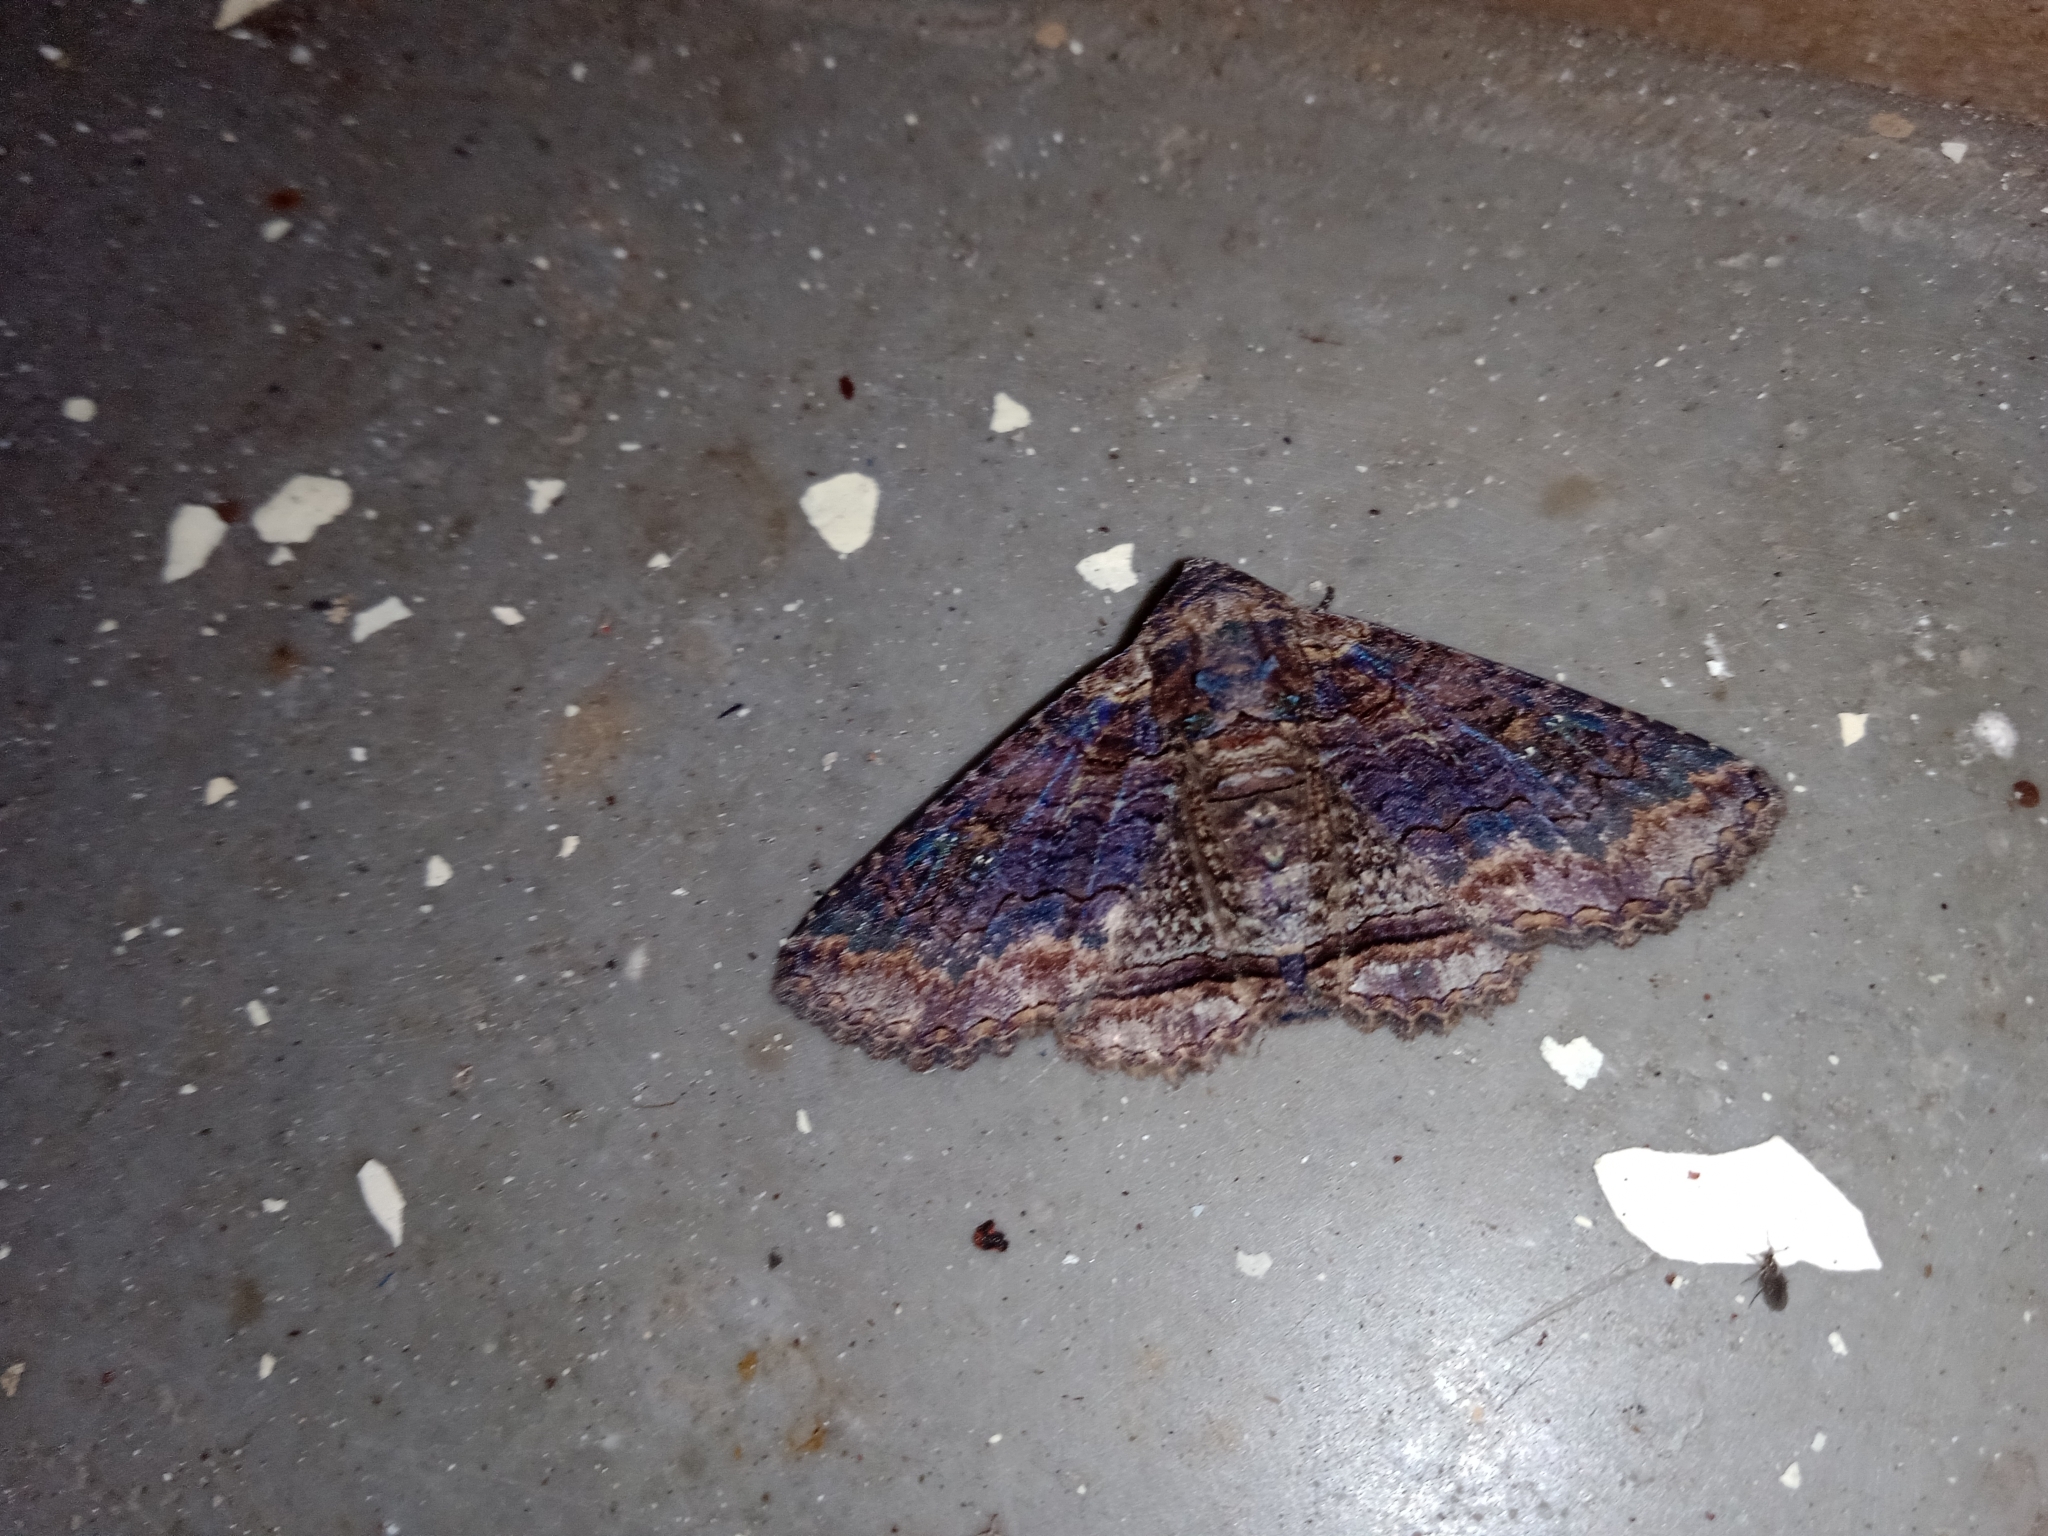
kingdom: Animalia
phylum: Arthropoda
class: Insecta
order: Lepidoptera
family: Erebidae
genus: Pericyma
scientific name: Pericyma cruegeri
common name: Poinciana looper
